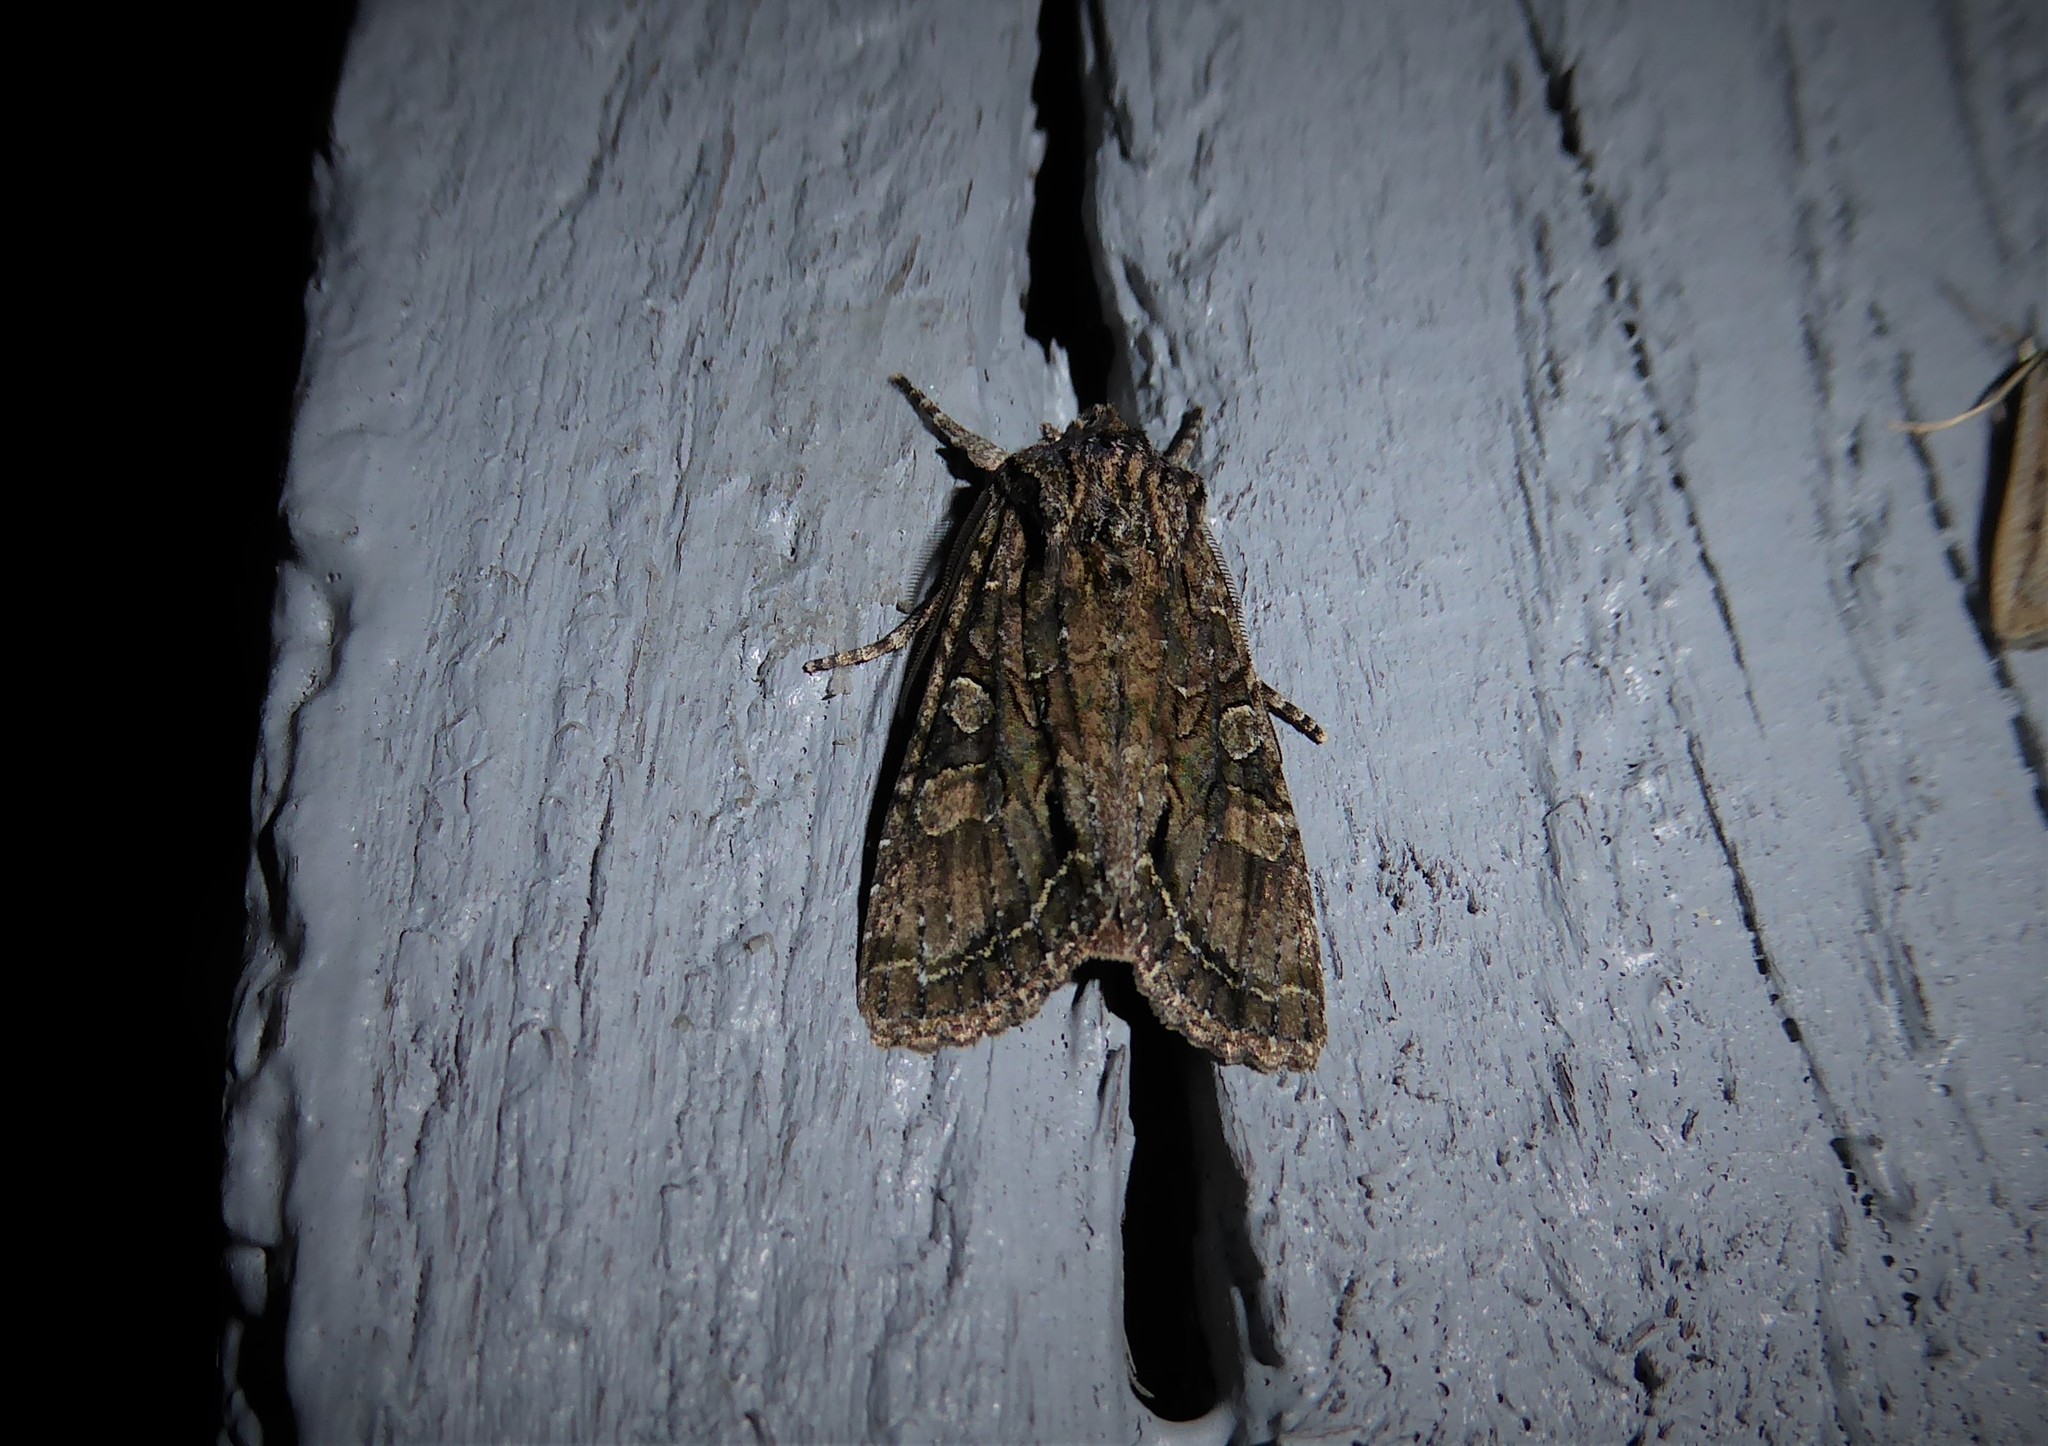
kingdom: Animalia
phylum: Arthropoda
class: Insecta
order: Lepidoptera
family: Noctuidae
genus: Ichneutica
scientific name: Ichneutica mutans
